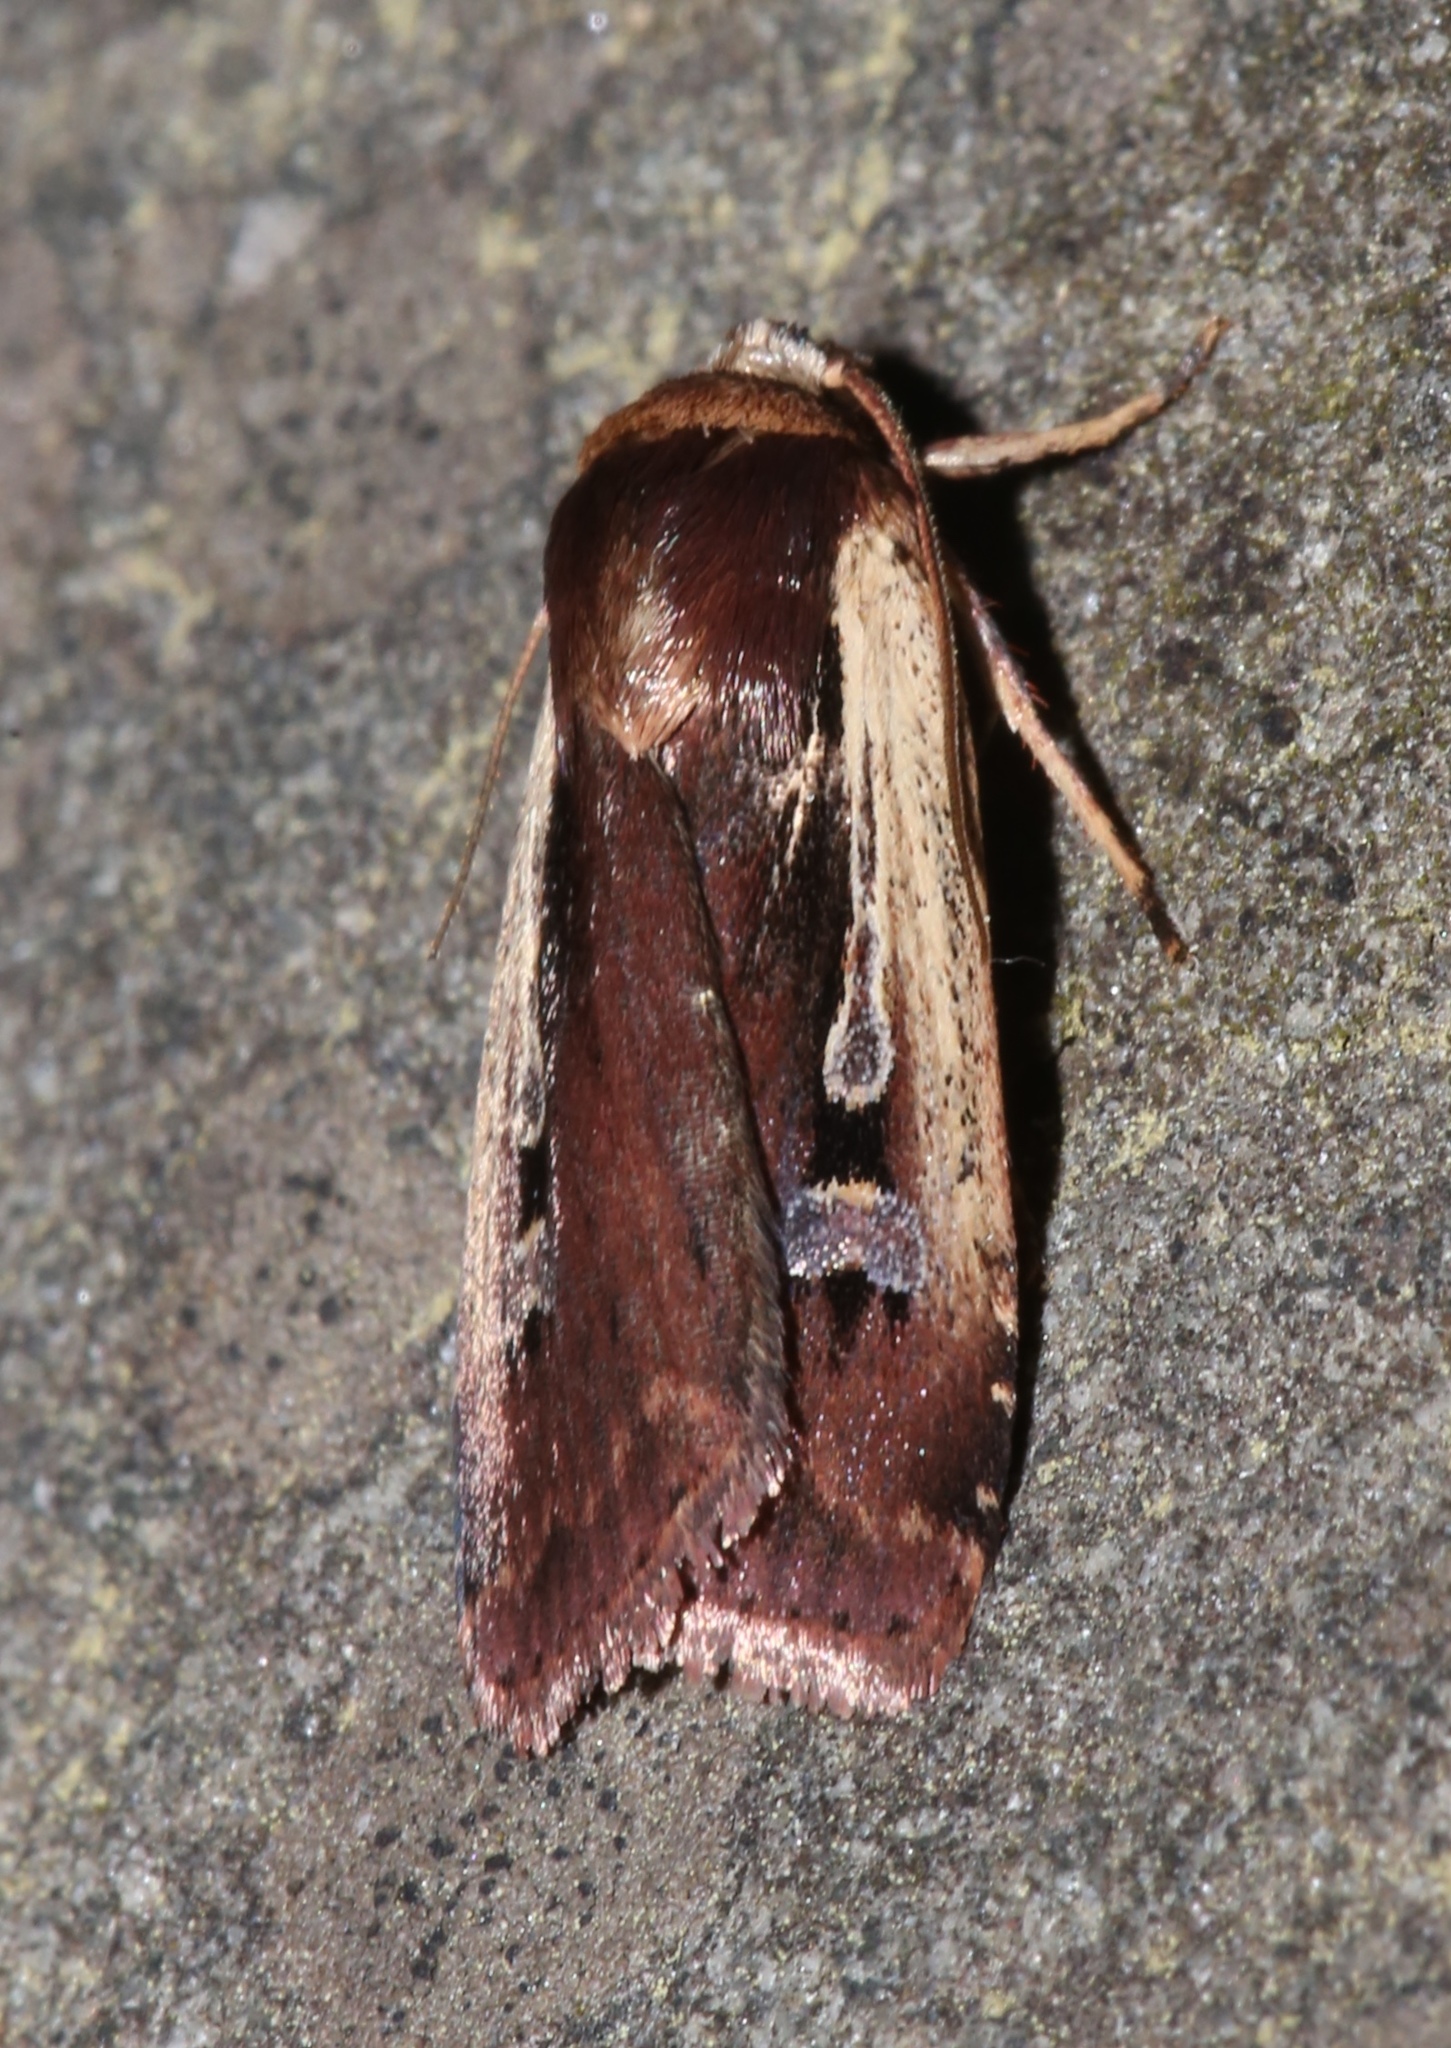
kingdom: Animalia
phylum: Arthropoda
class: Insecta
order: Lepidoptera
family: Noctuidae
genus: Ochropleura
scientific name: Ochropleura implecta
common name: Flame-shouldered dart
